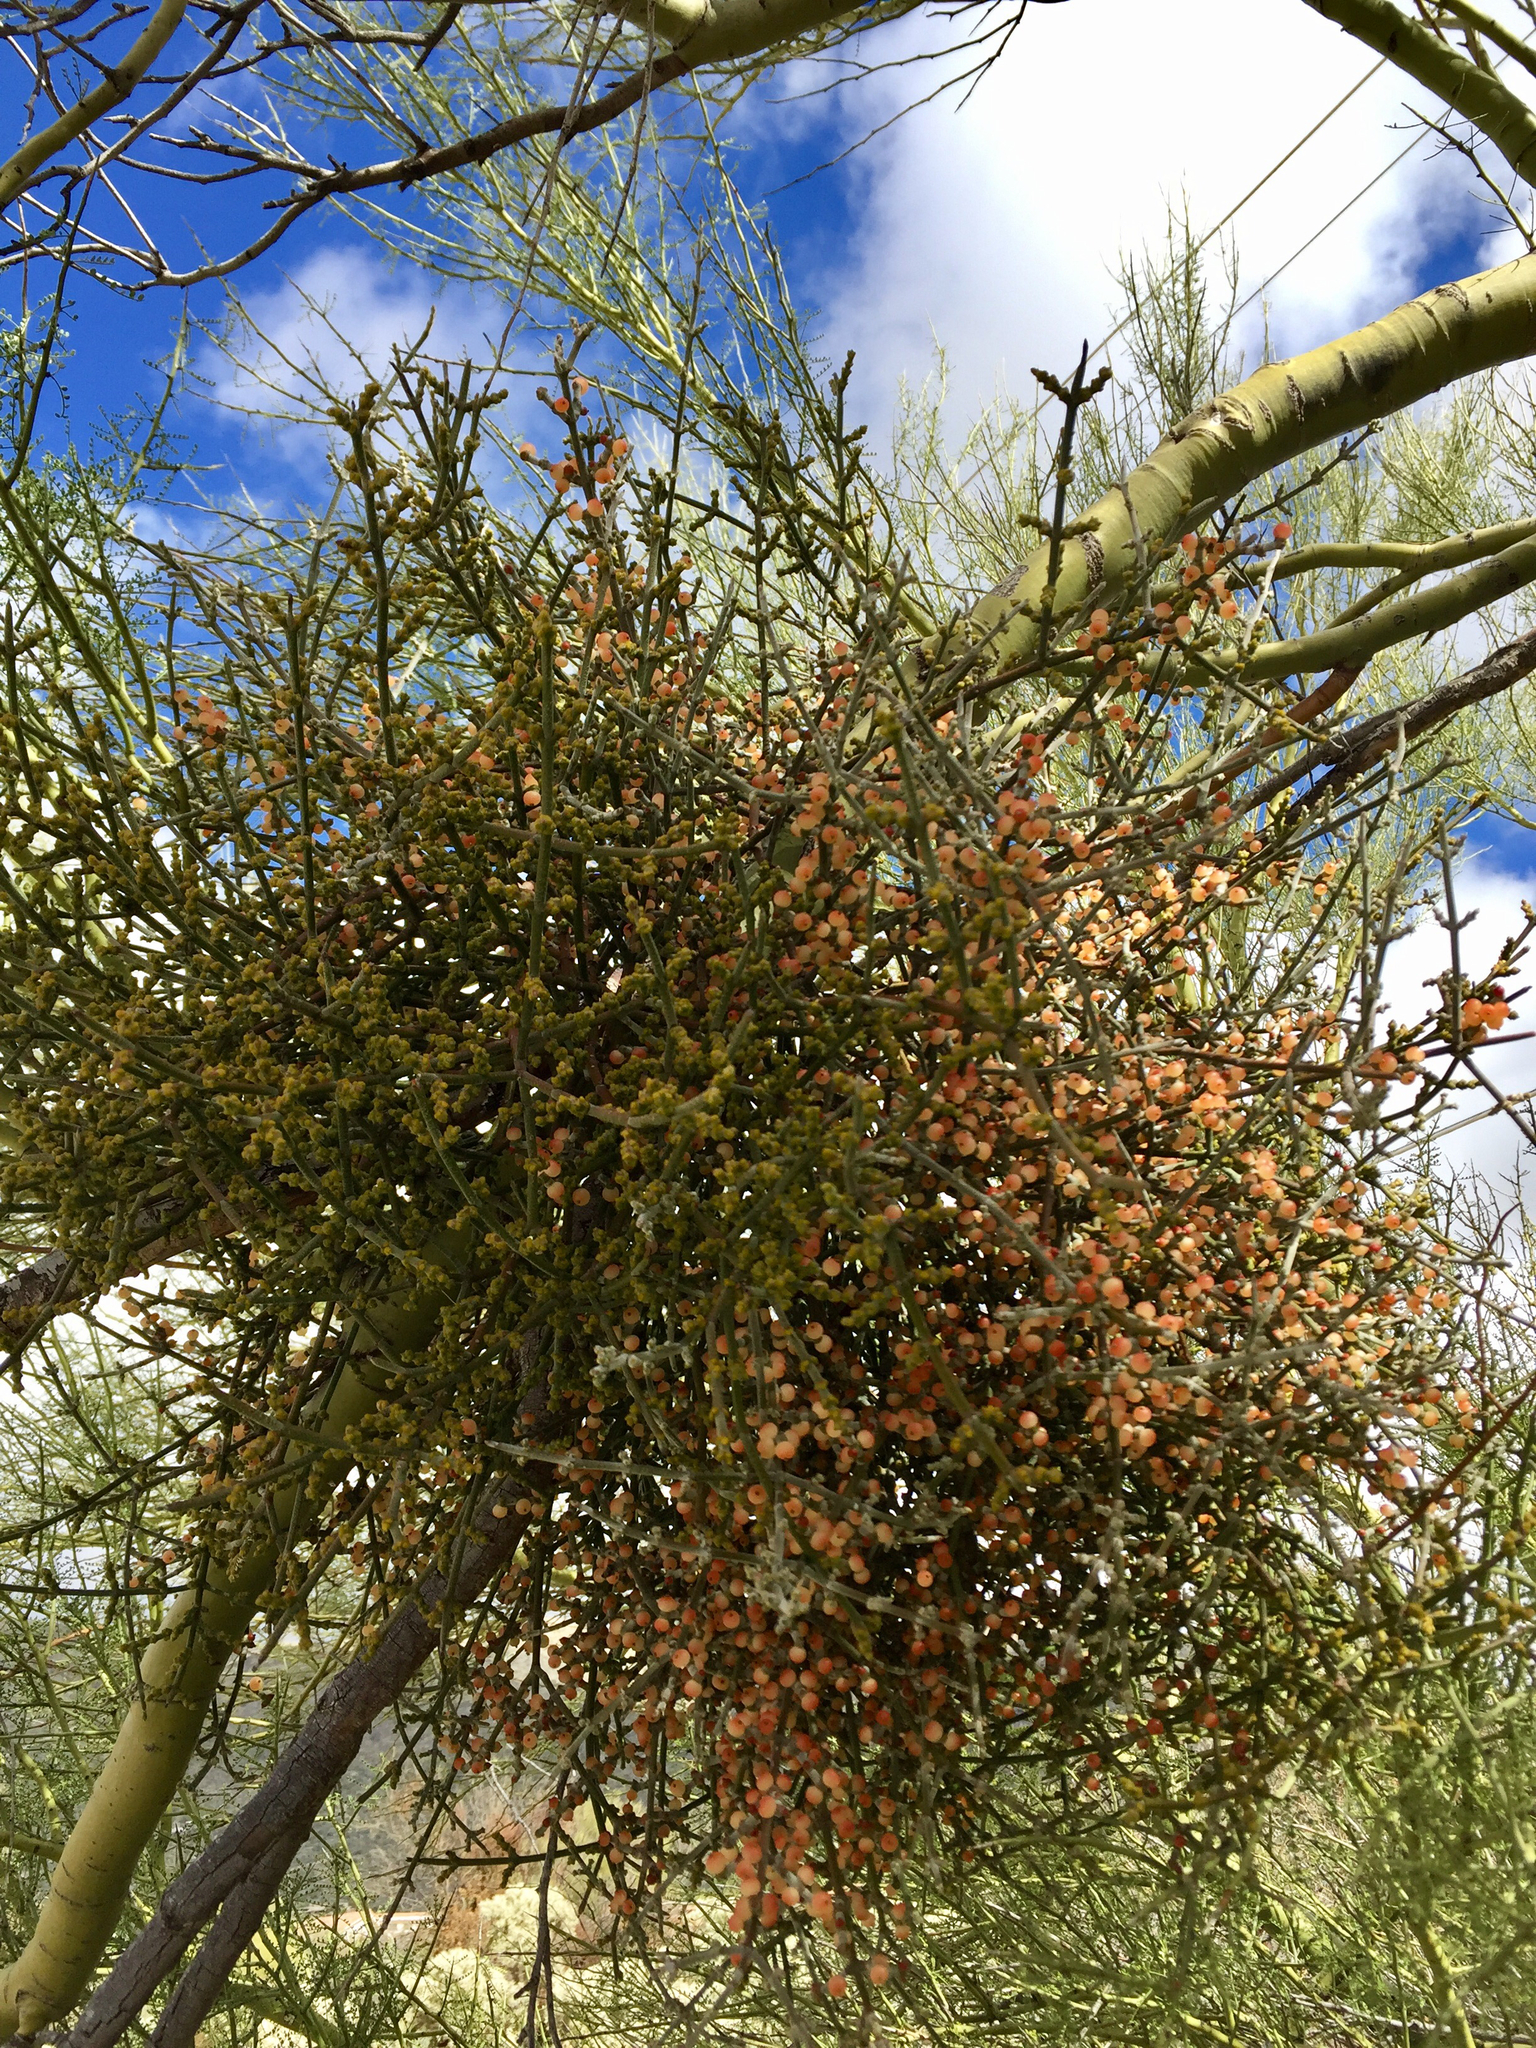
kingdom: Plantae
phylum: Tracheophyta
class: Magnoliopsida
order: Santalales
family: Viscaceae
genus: Phoradendron
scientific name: Phoradendron californicum
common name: Acacia mistletoe
